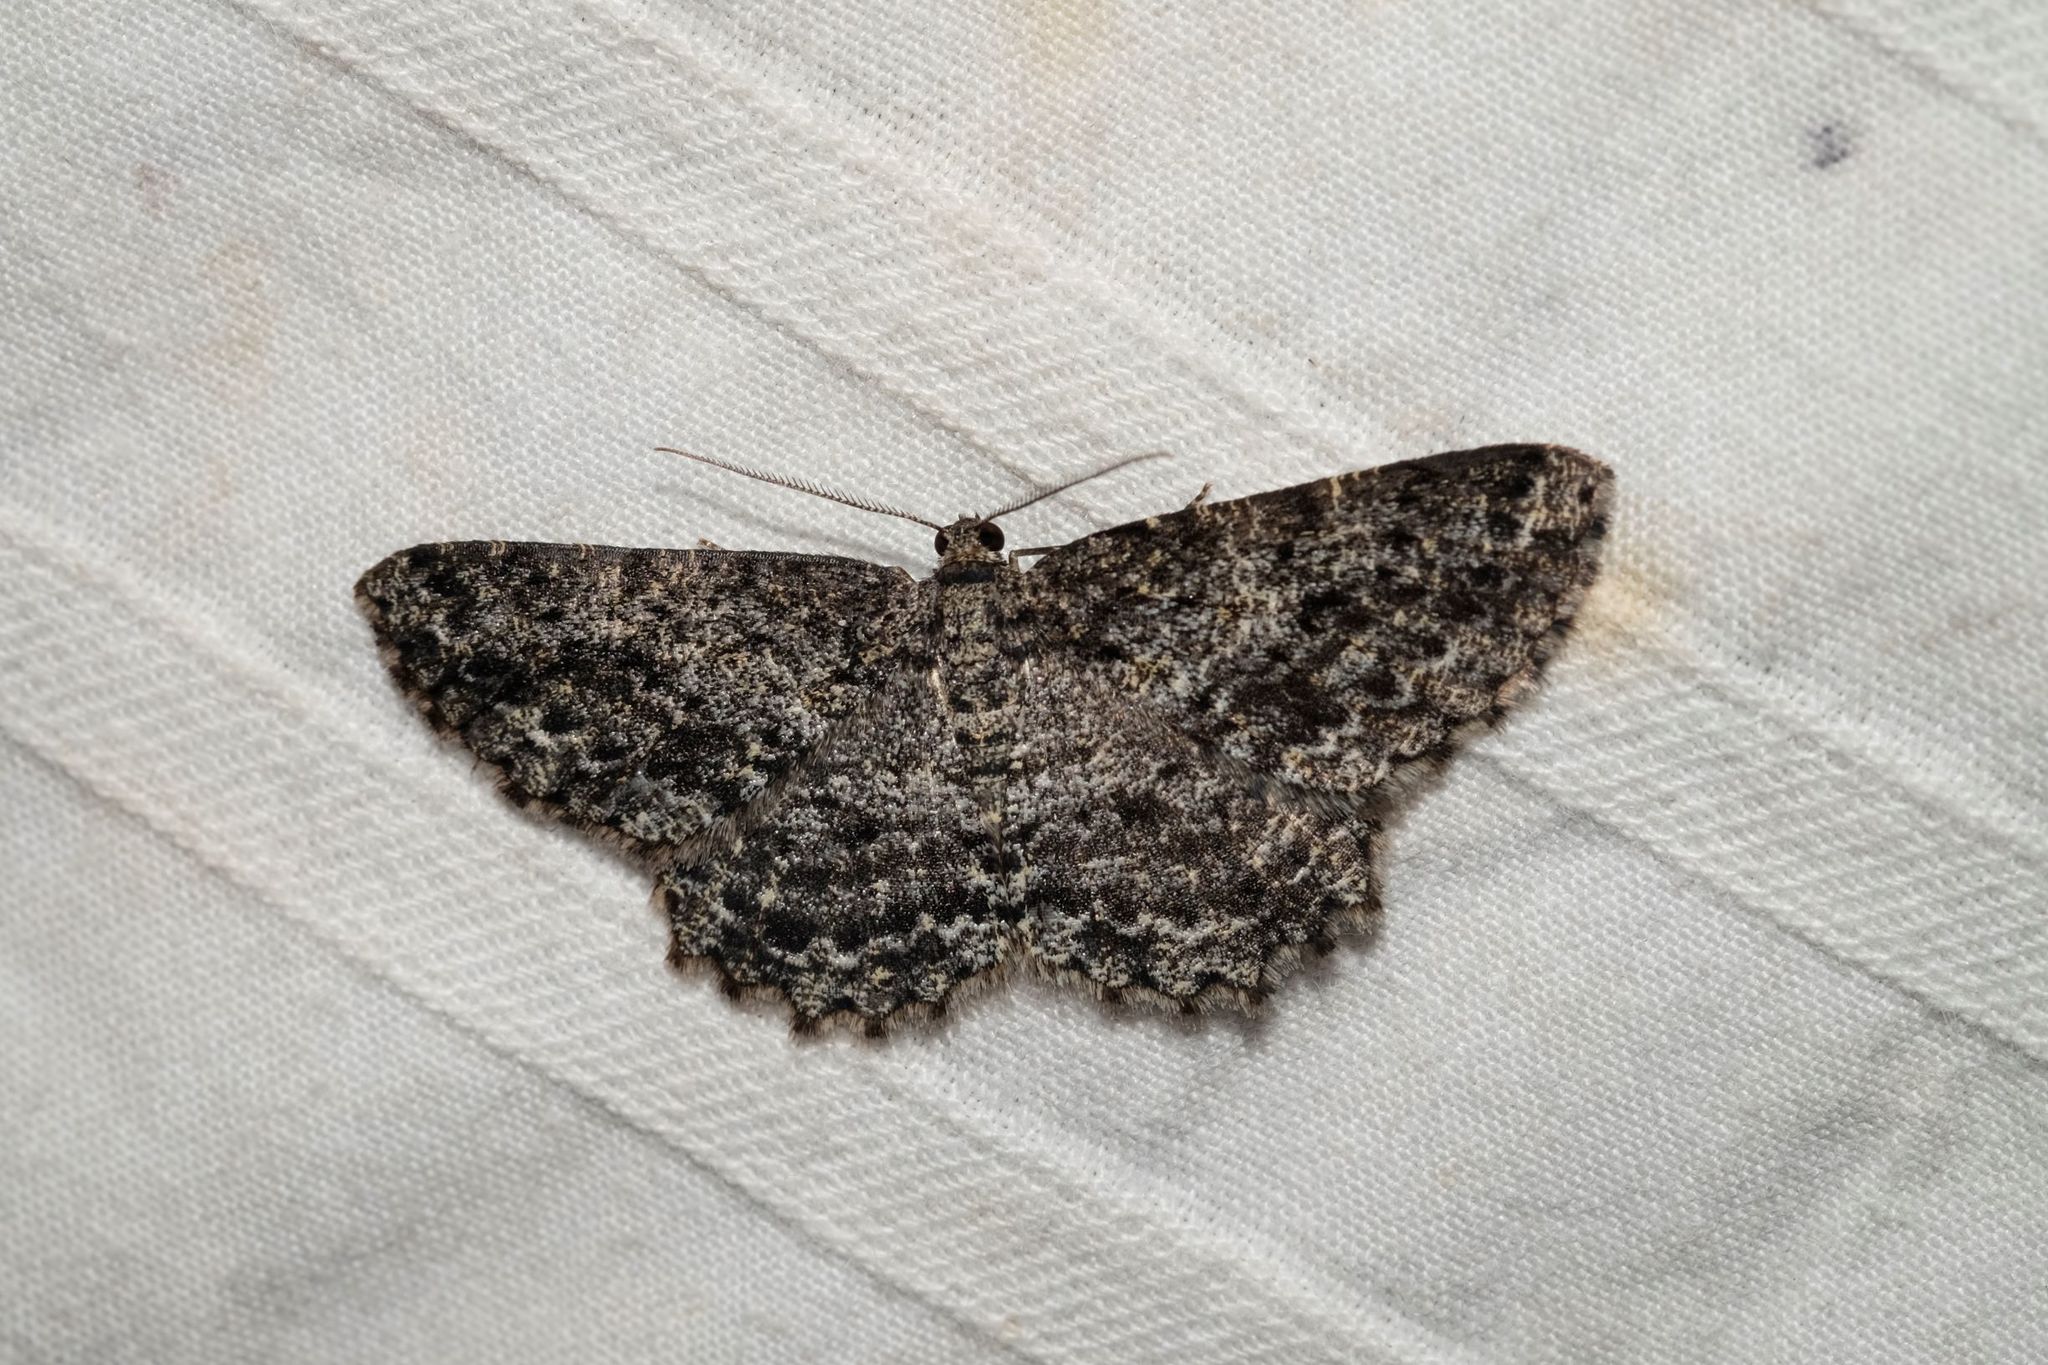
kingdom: Animalia
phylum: Arthropoda
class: Insecta
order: Lepidoptera
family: Geometridae
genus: Thallogama
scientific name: Thallogama nigraria
